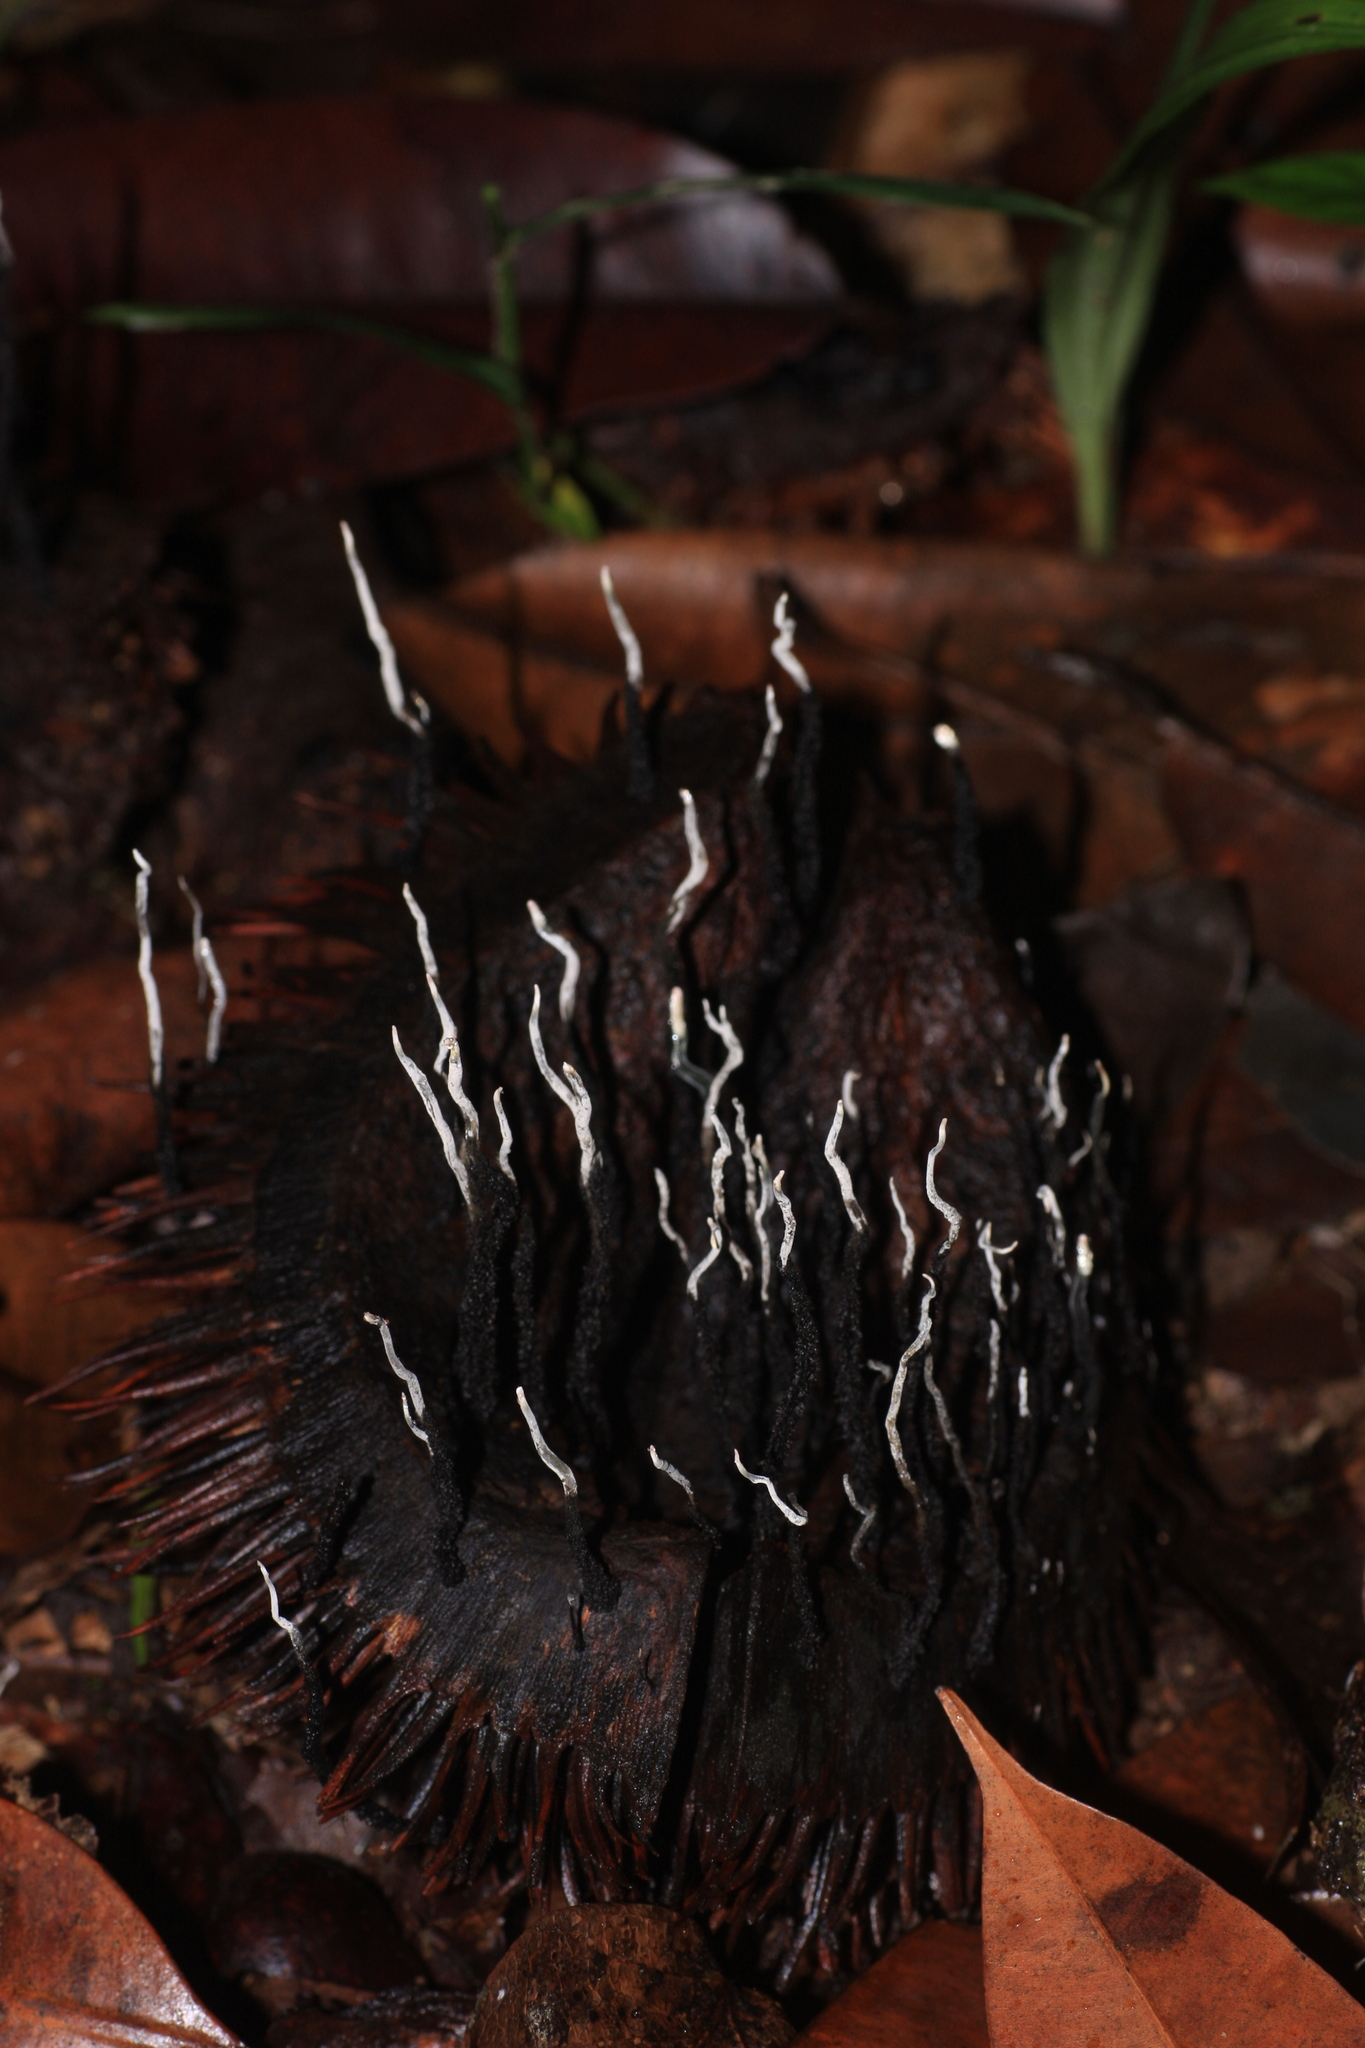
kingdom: Fungi
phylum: Ascomycota
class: Sordariomycetes
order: Xylariales
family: Xylariaceae
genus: Xylaria
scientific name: Xylaria culleniae
